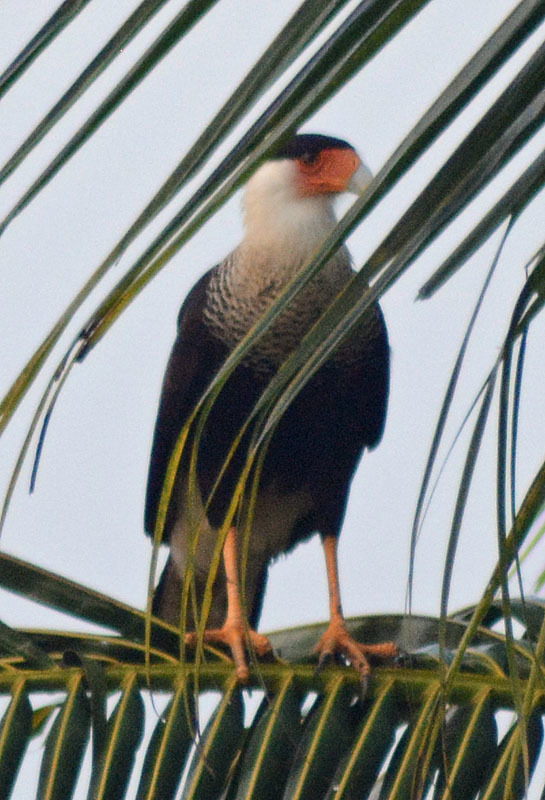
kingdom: Animalia
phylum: Chordata
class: Aves
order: Falconiformes
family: Falconidae
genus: Caracara
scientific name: Caracara plancus
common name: Southern caracara
